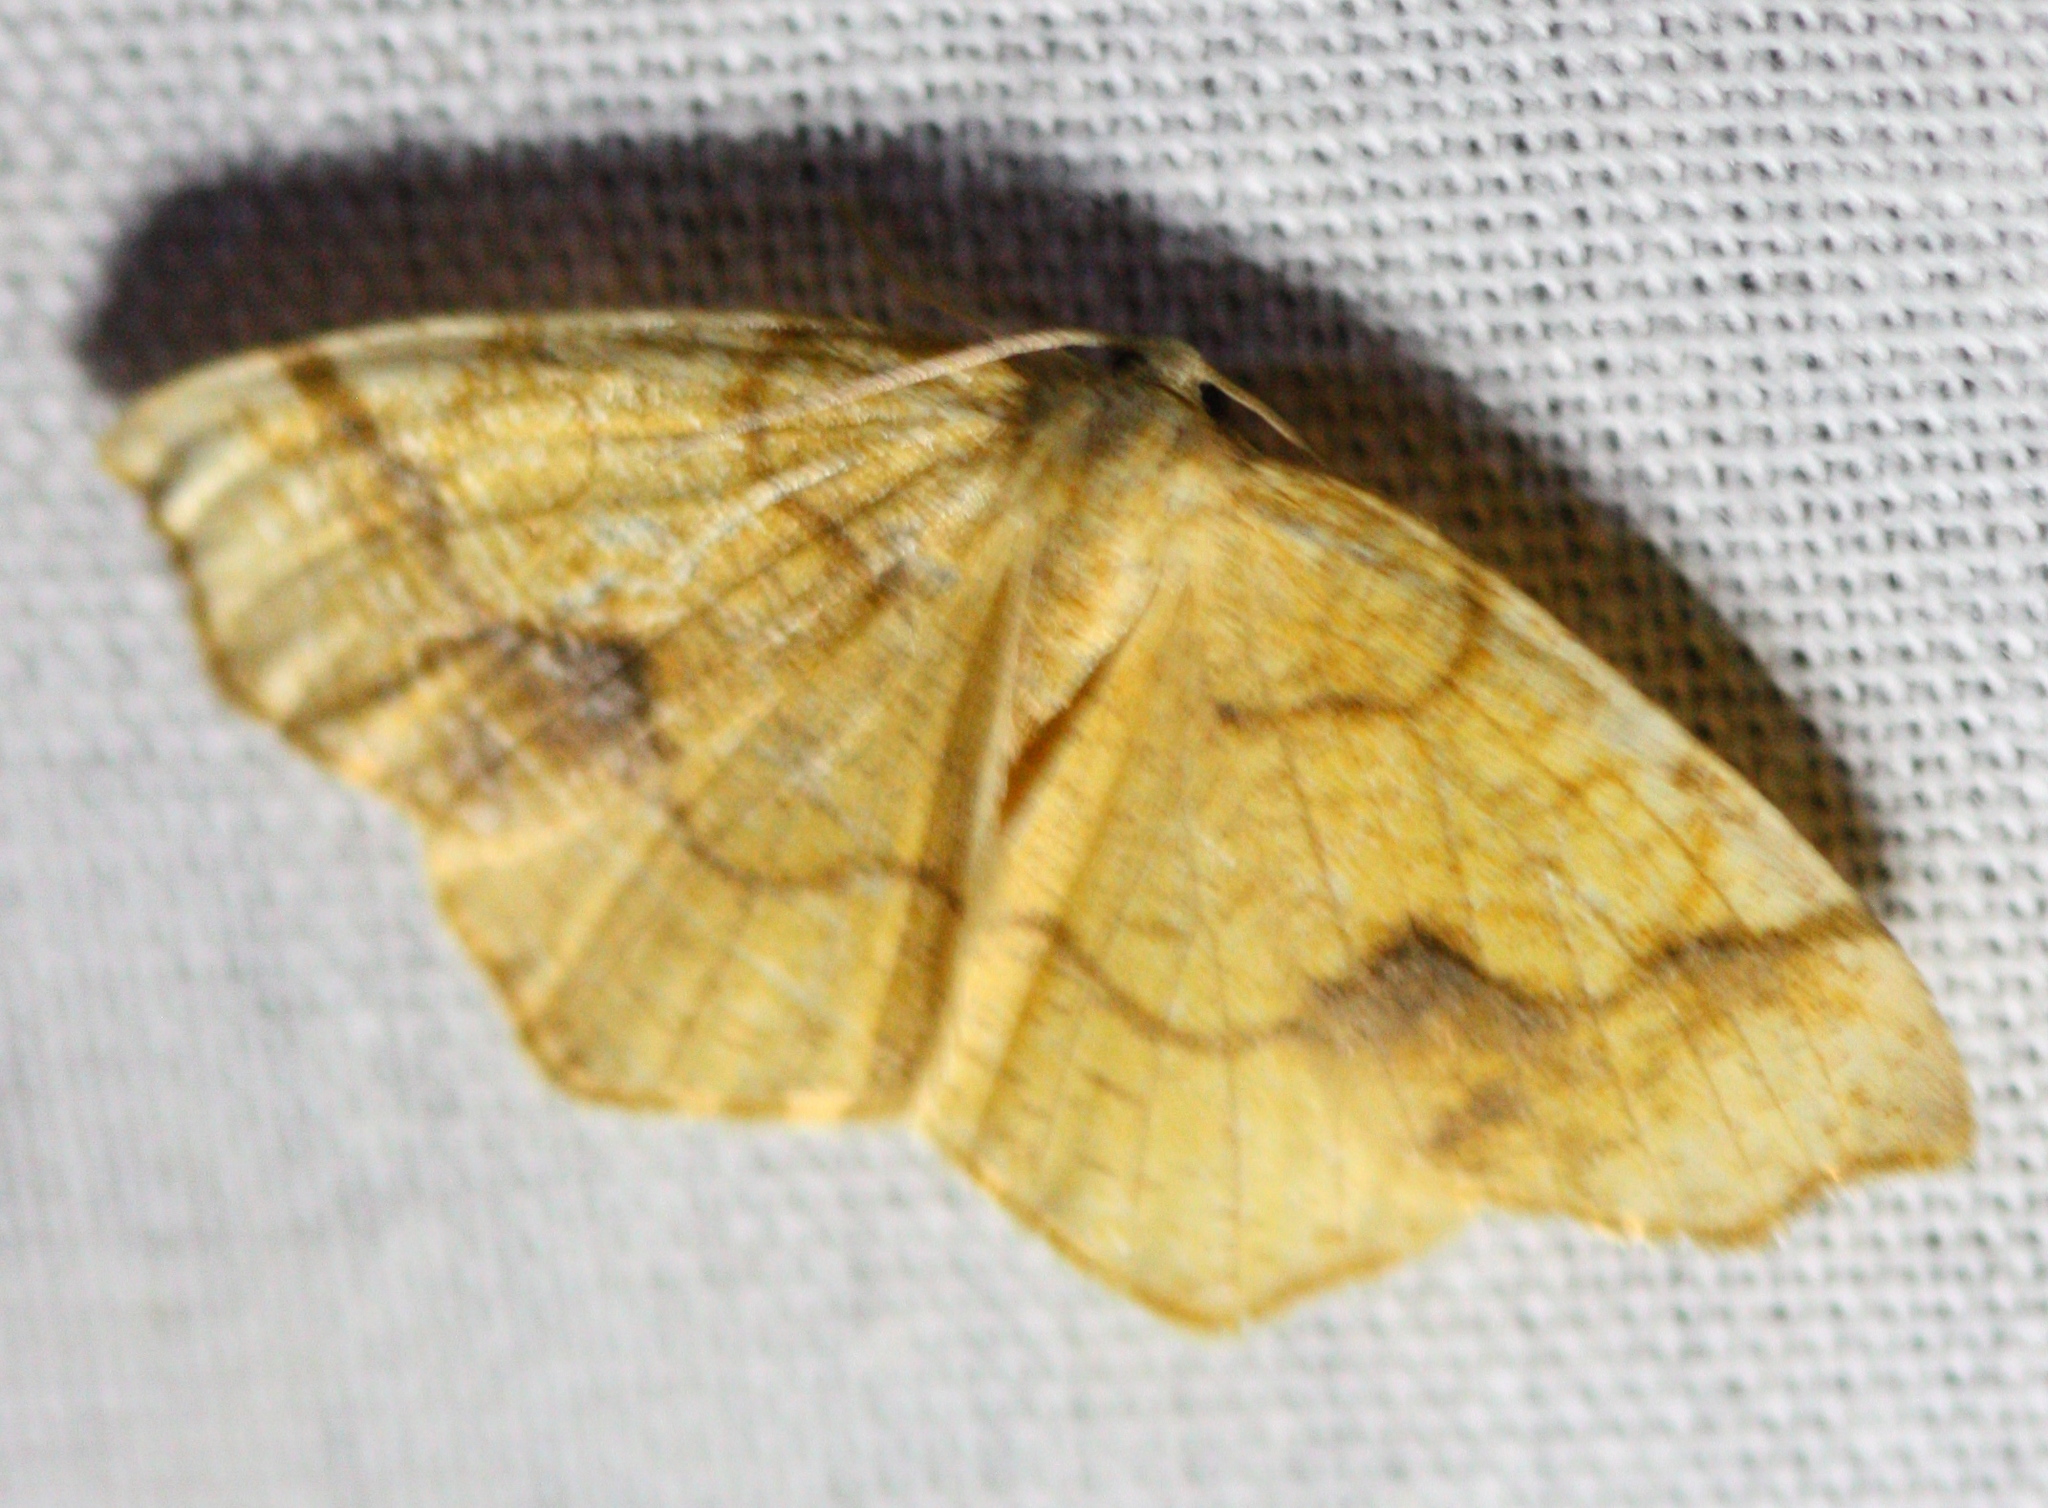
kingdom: Animalia
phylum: Arthropoda
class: Insecta
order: Lepidoptera
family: Geometridae
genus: Nematocampa
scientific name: Nematocampa brehmeata
